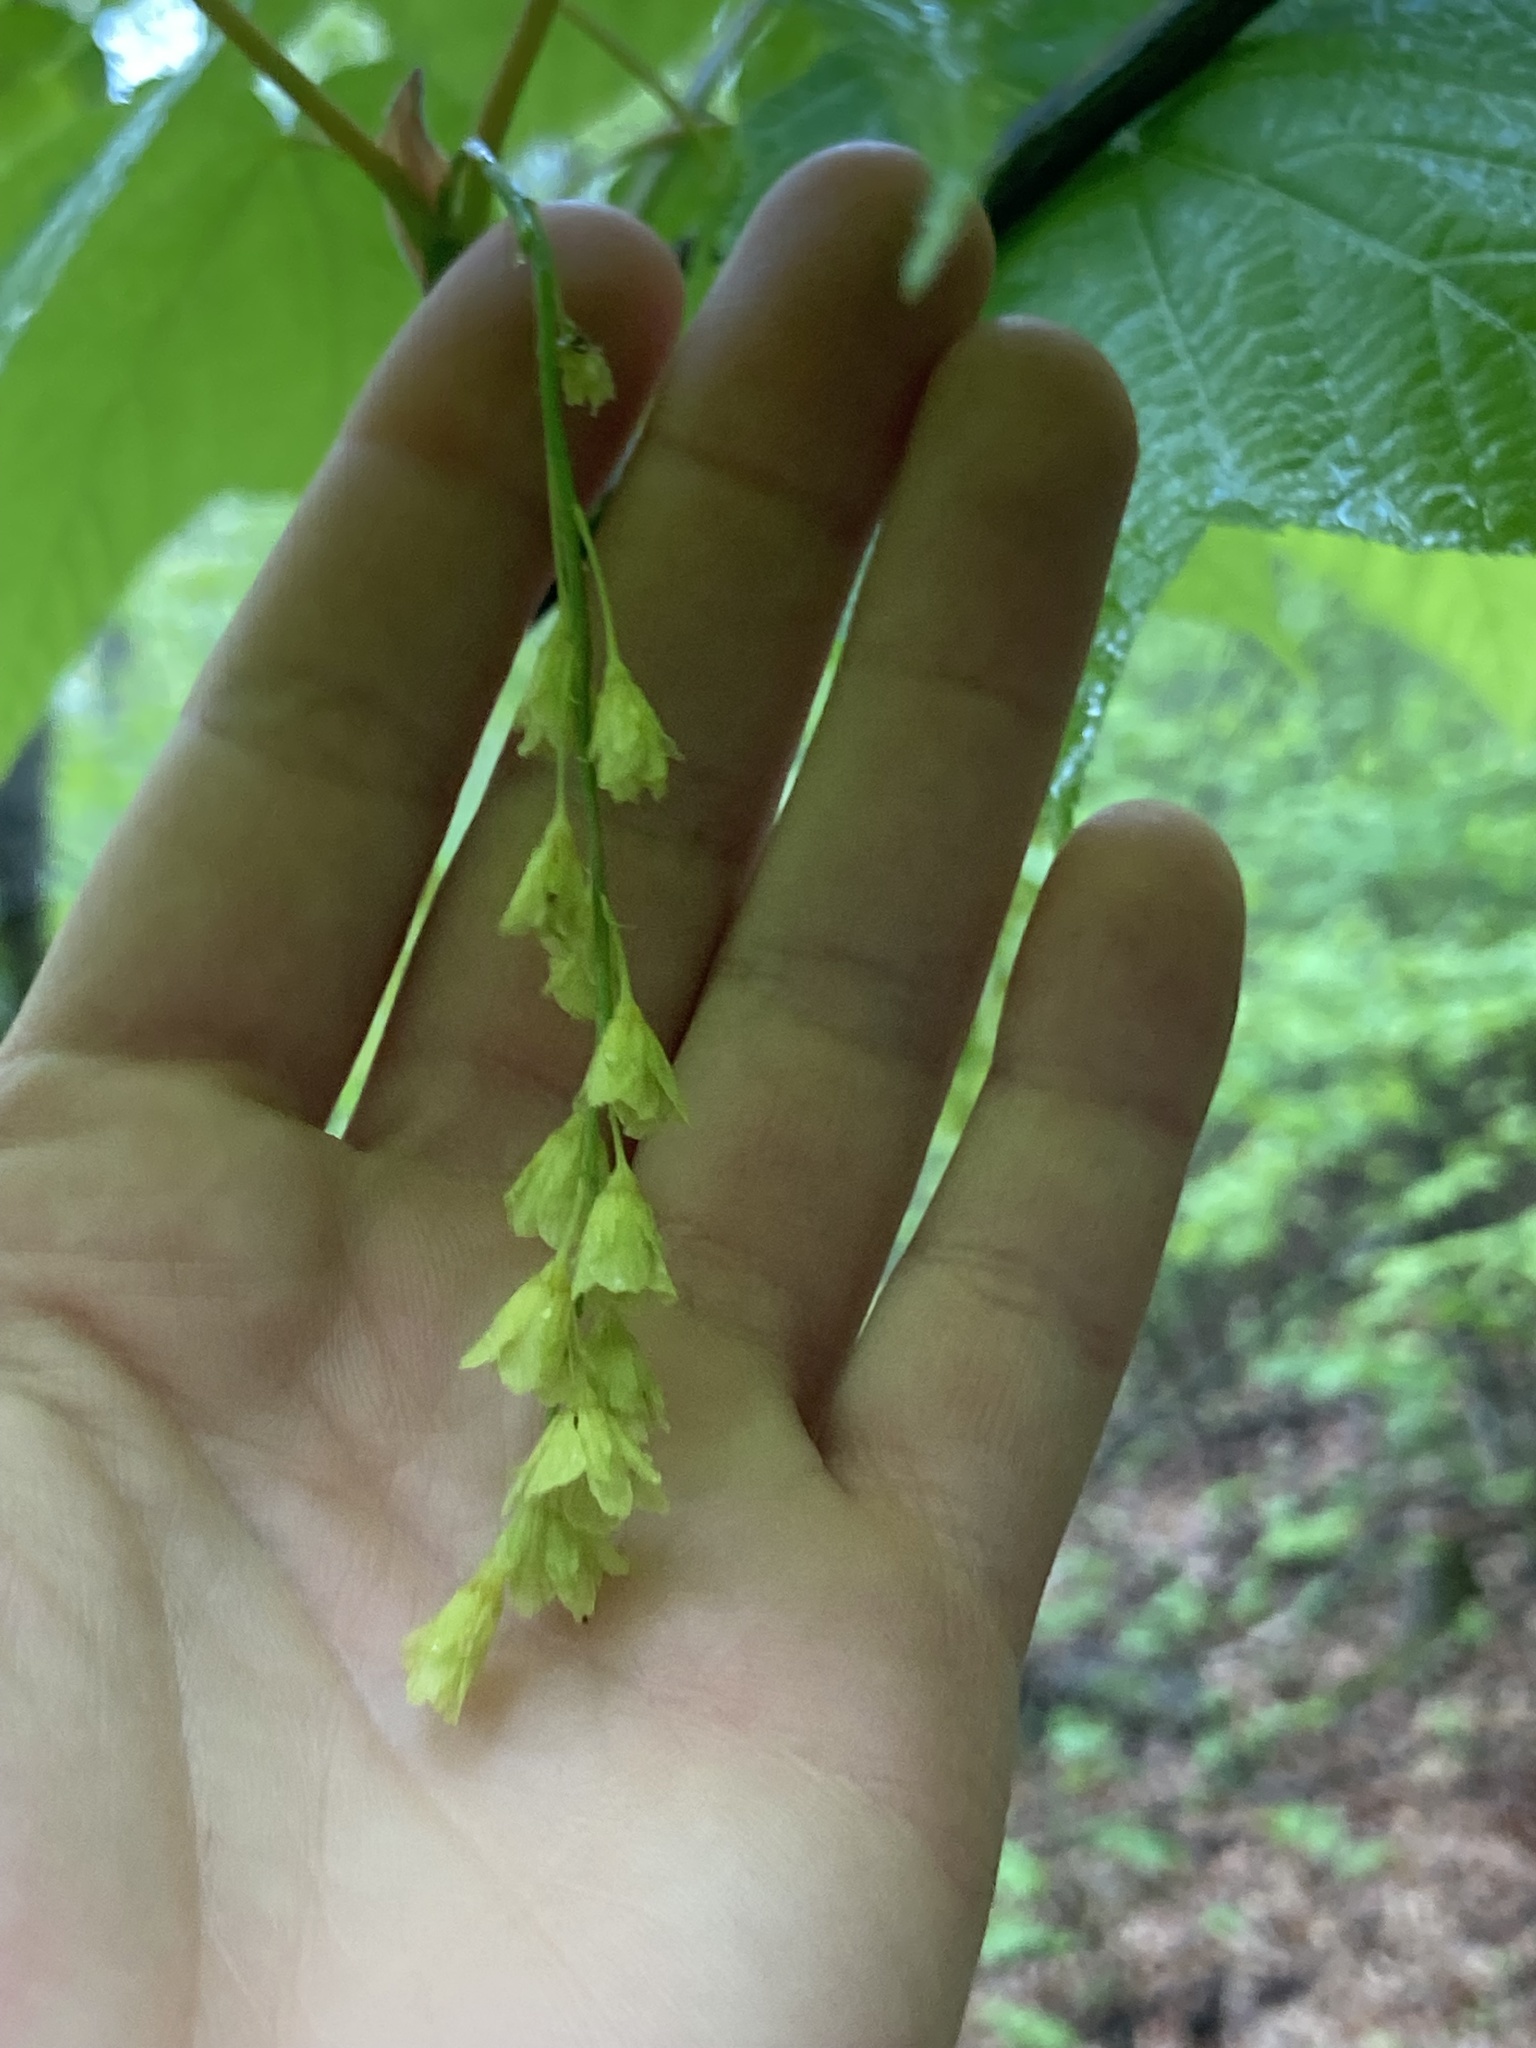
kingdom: Plantae
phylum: Tracheophyta
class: Magnoliopsida
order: Sapindales
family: Sapindaceae
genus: Acer
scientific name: Acer pensylvanicum
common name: Moosewood
